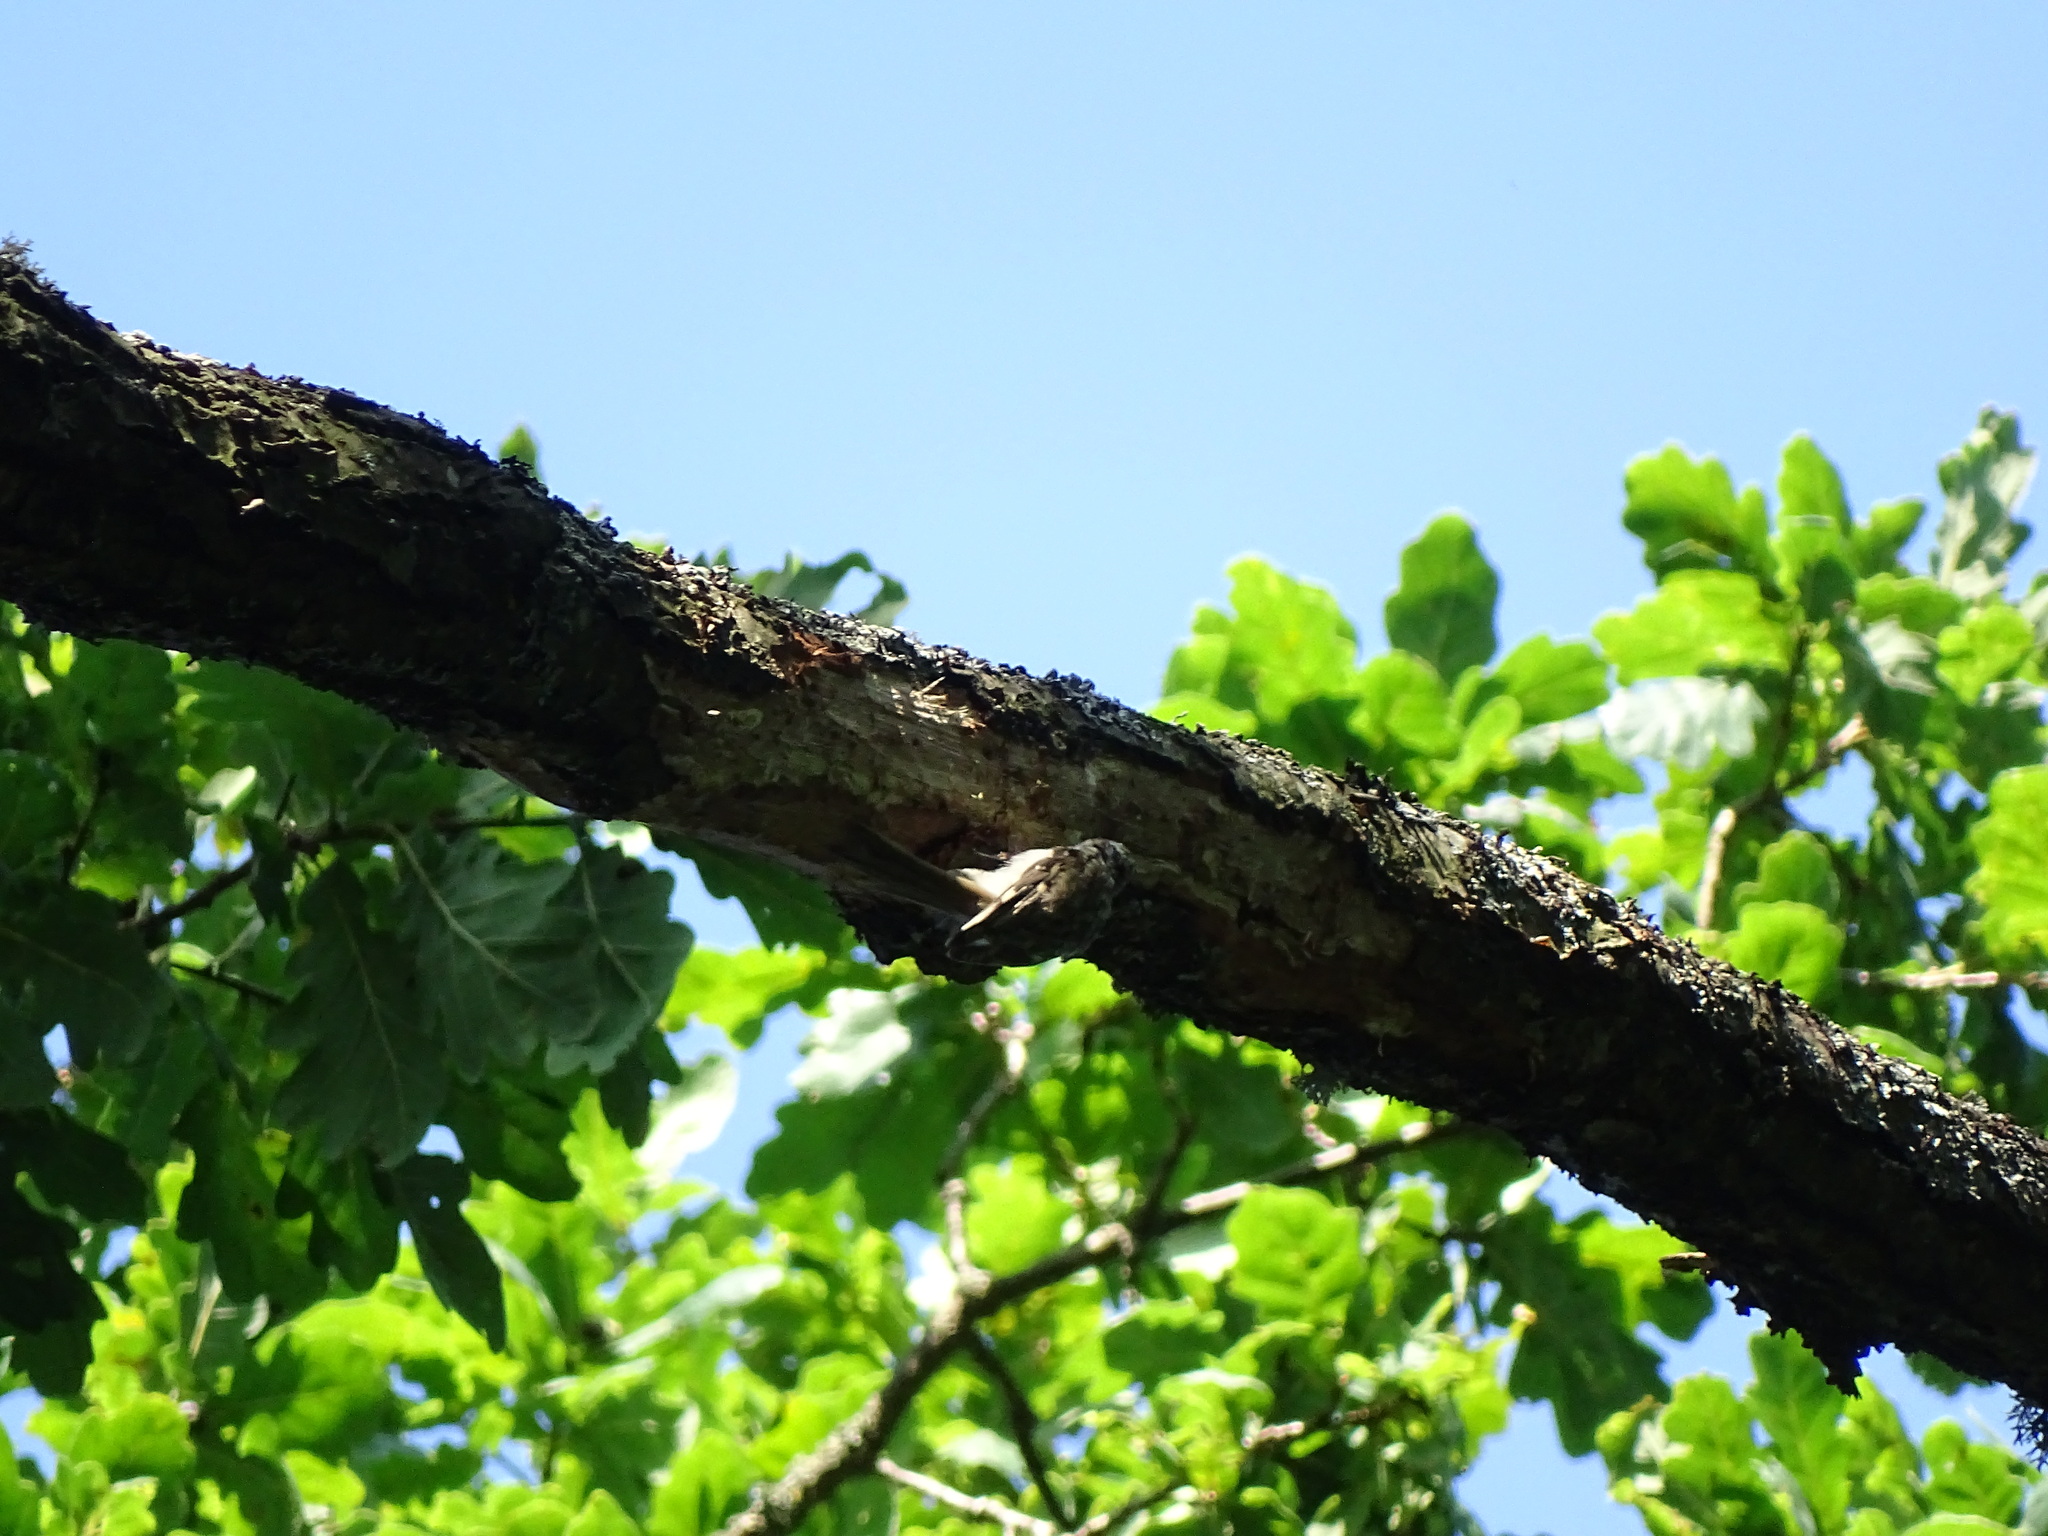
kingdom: Animalia
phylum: Chordata
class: Aves
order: Passeriformes
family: Certhiidae
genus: Certhia
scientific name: Certhia familiaris
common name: Eurasian treecreeper
